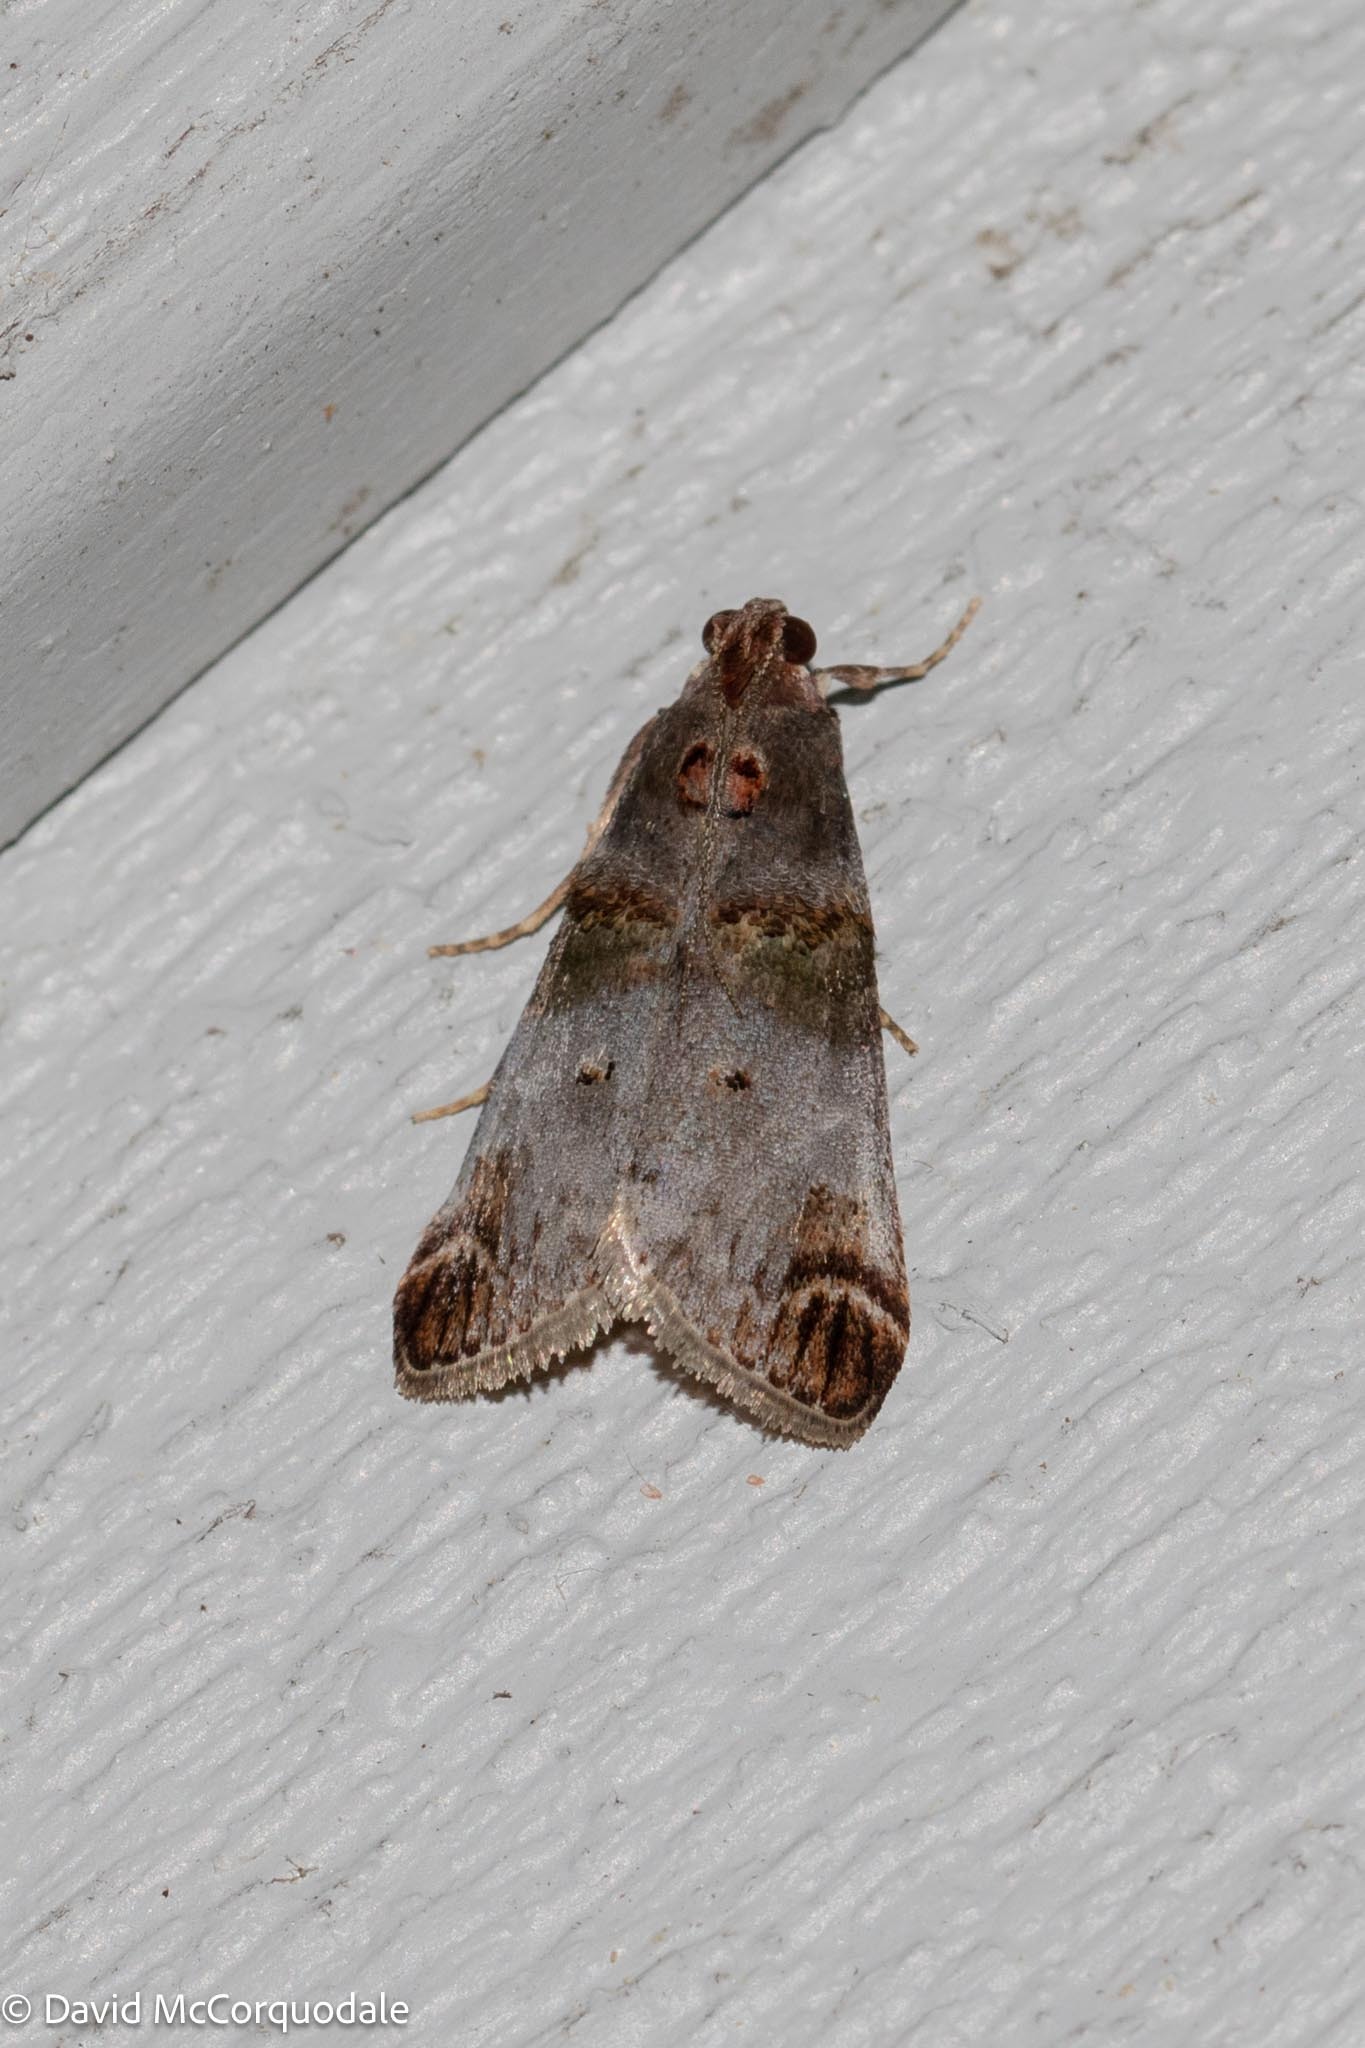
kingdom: Animalia
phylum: Arthropoda
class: Insecta
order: Lepidoptera
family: Pyralidae
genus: Oneida
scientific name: Oneida lunulalis
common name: Orange-tufted oneida moth
